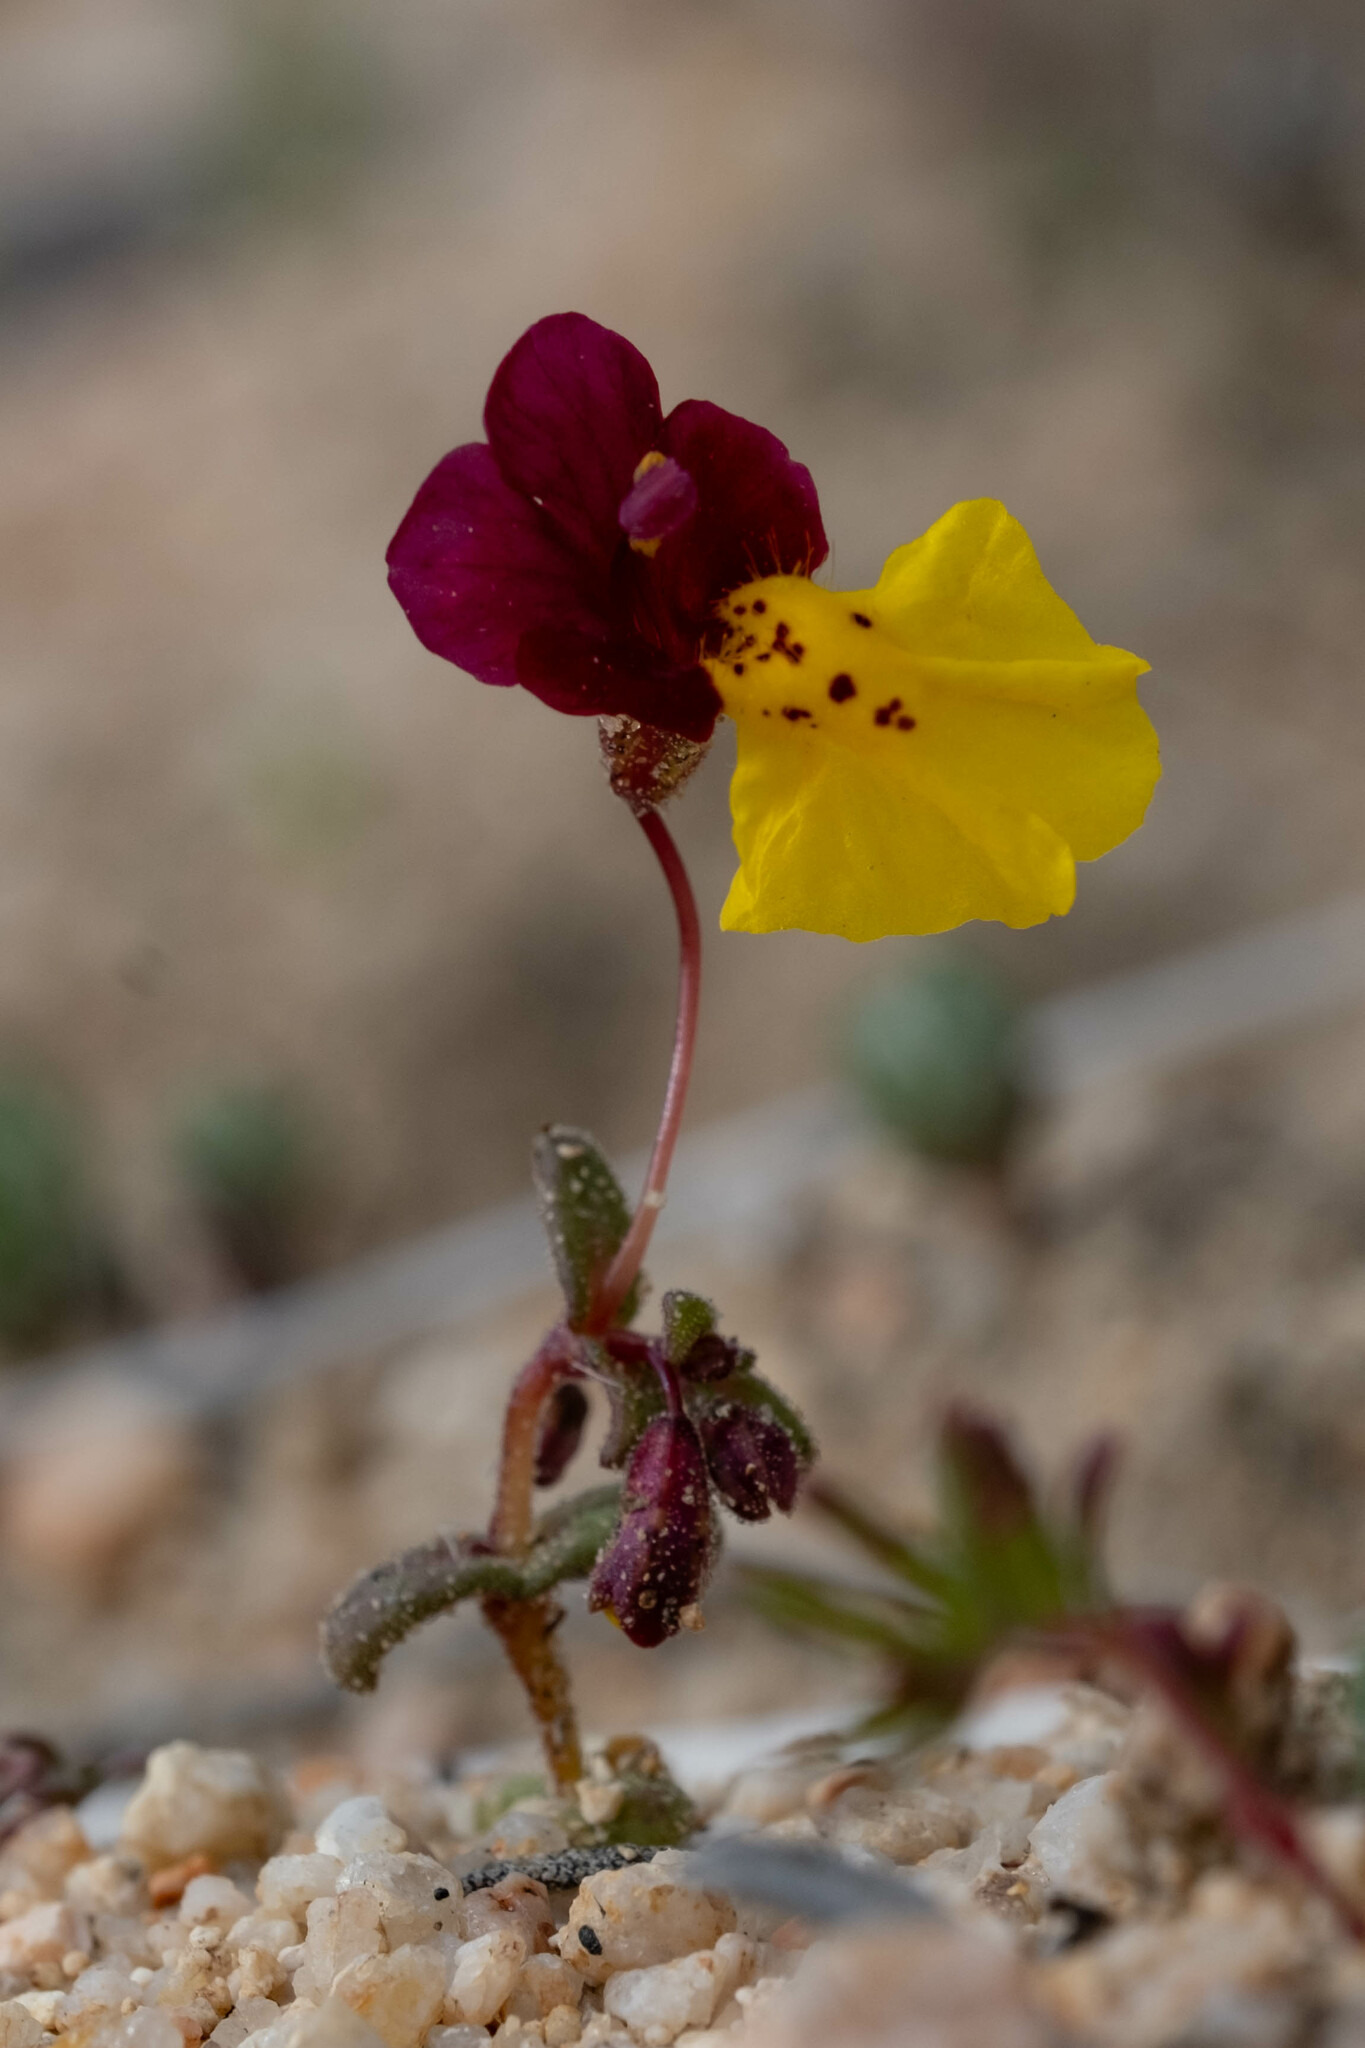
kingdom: Plantae
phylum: Tracheophyta
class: Magnoliopsida
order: Lamiales
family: Phrymaceae
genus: Erythranthe
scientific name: Erythranthe shevockii
